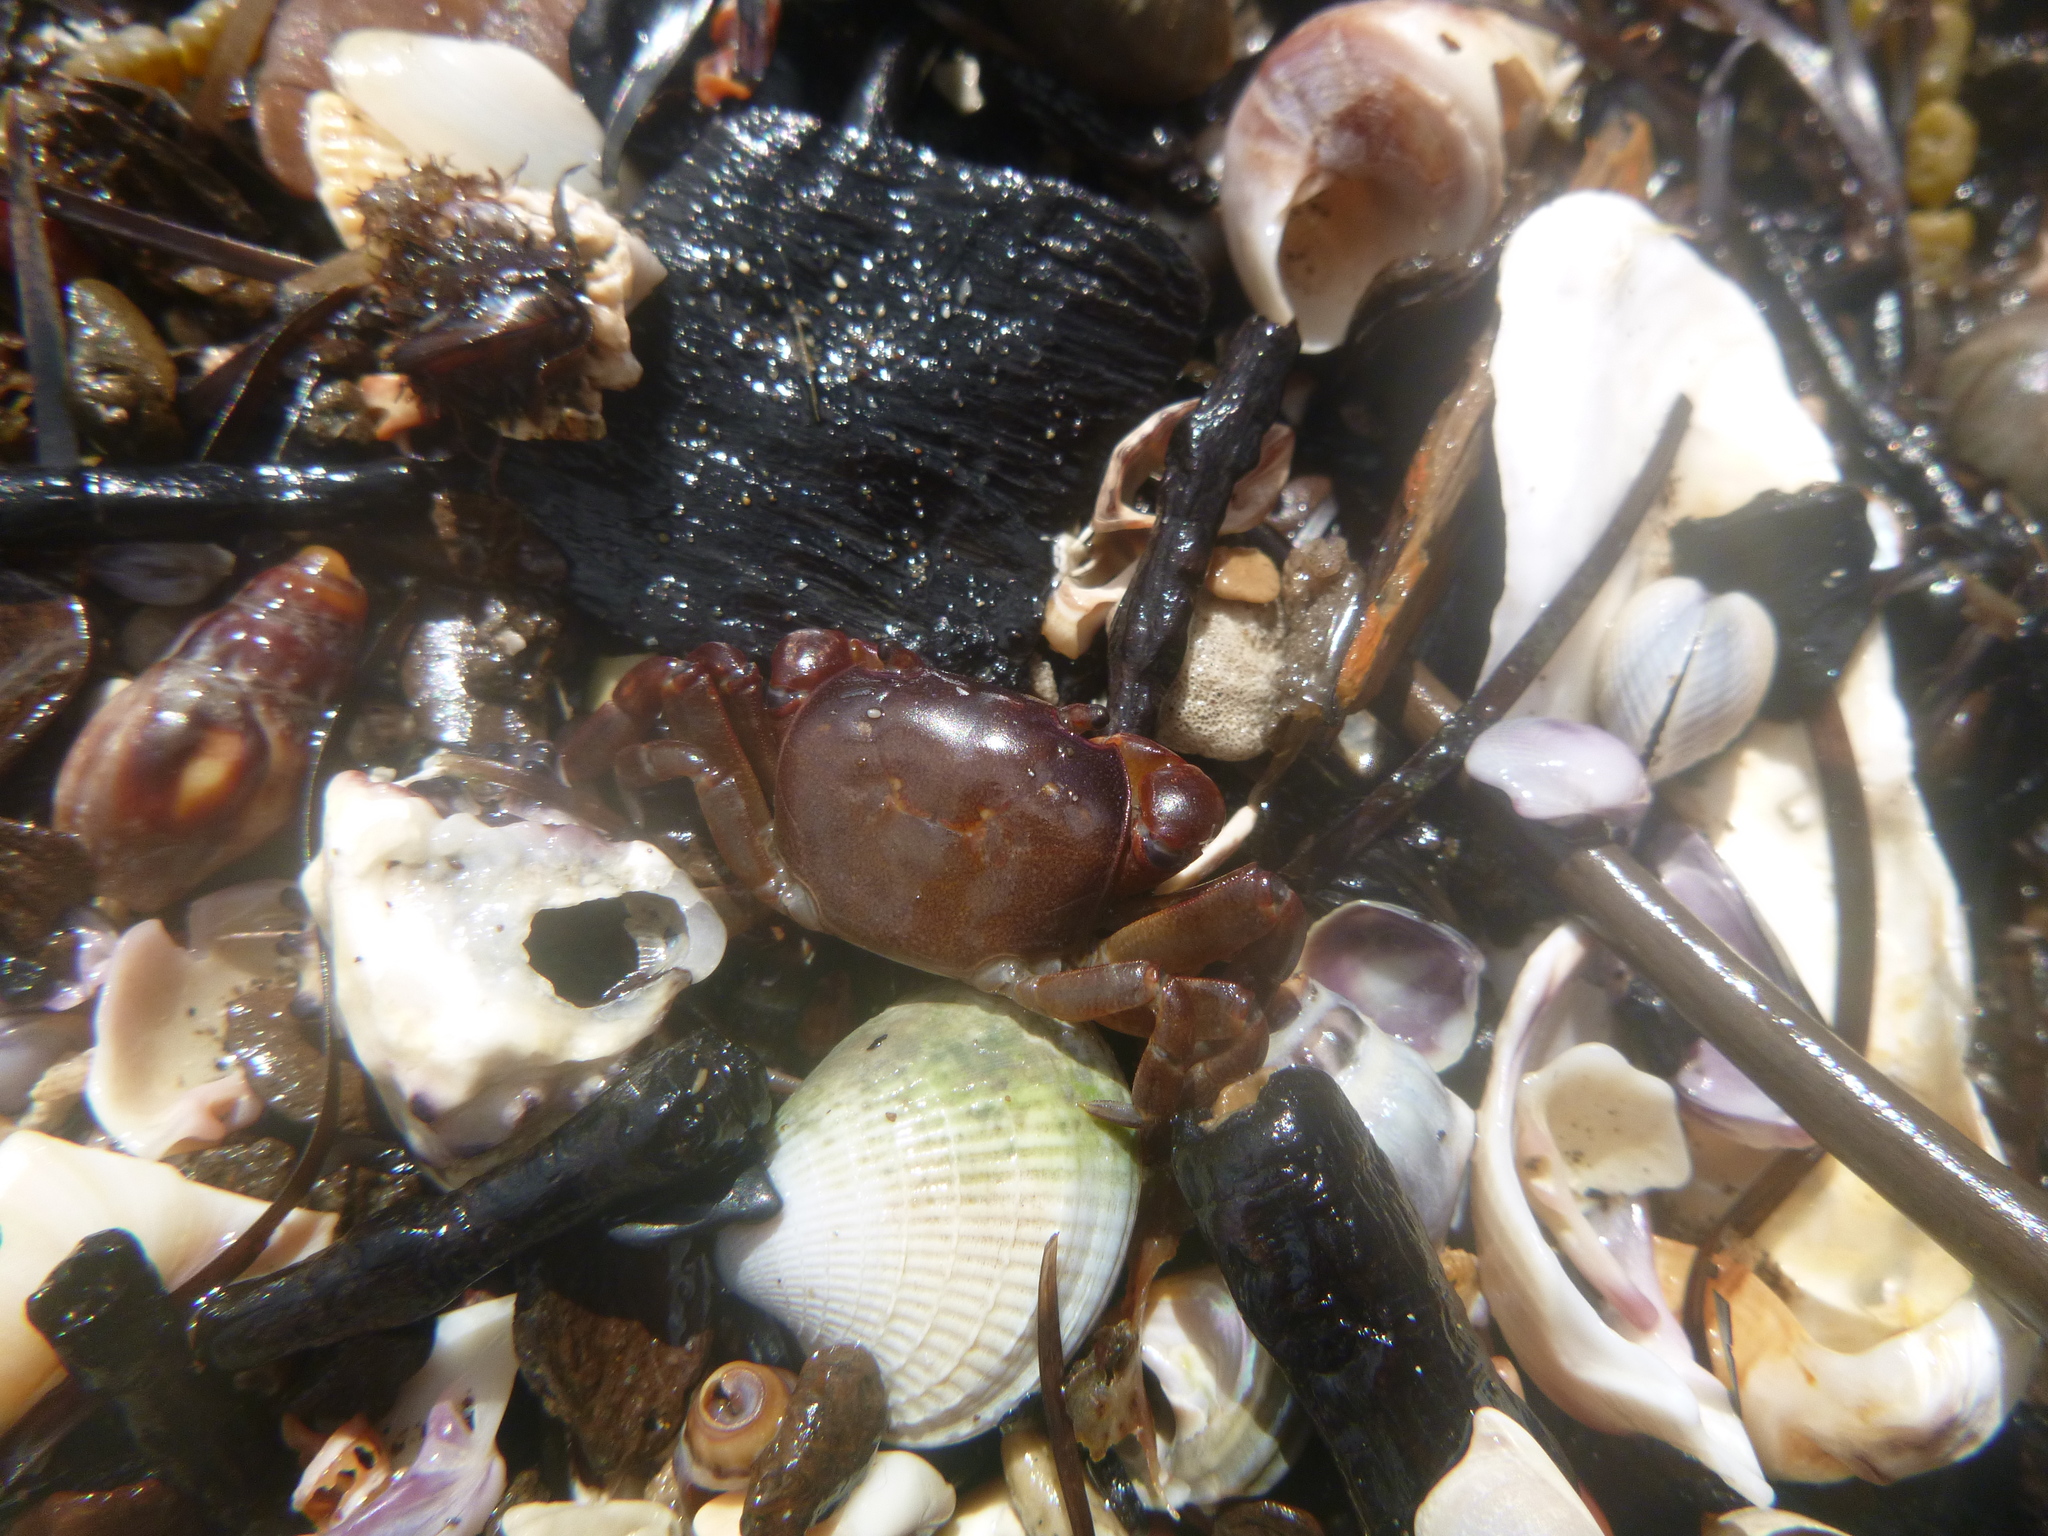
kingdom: Animalia
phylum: Arthropoda
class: Malacostraca
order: Decapoda
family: Varunidae
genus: Cyclograpsus
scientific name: Cyclograpsus lavauxi
